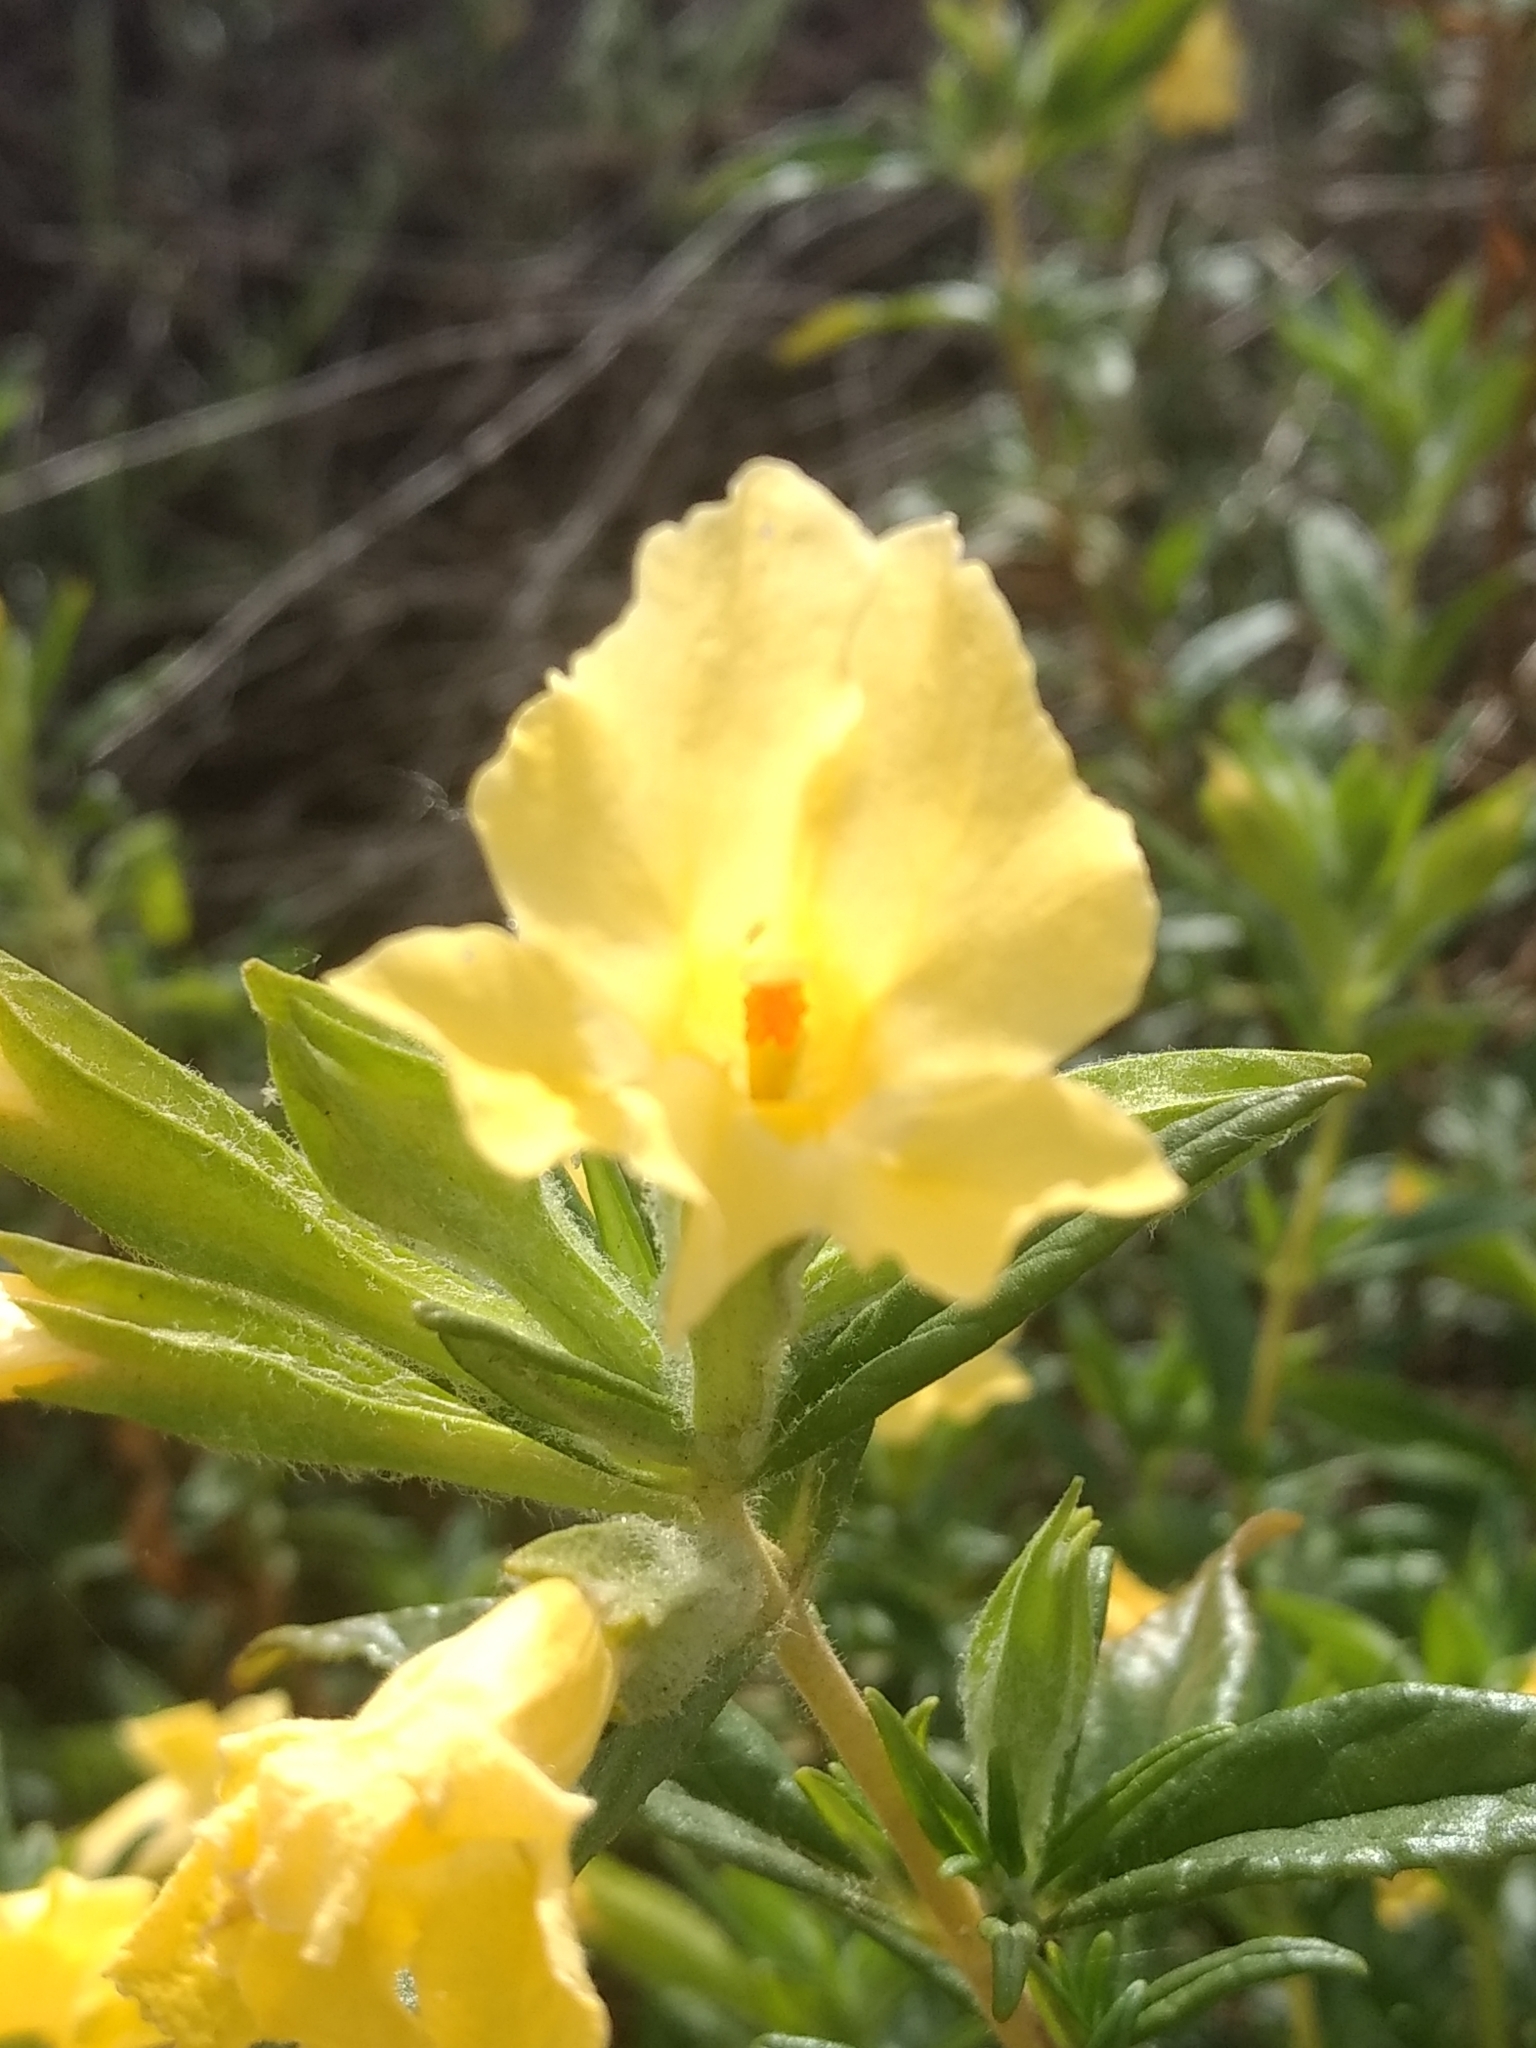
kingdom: Plantae
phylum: Tracheophyta
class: Magnoliopsida
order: Lamiales
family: Phrymaceae
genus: Diplacus
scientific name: Diplacus calycinus
